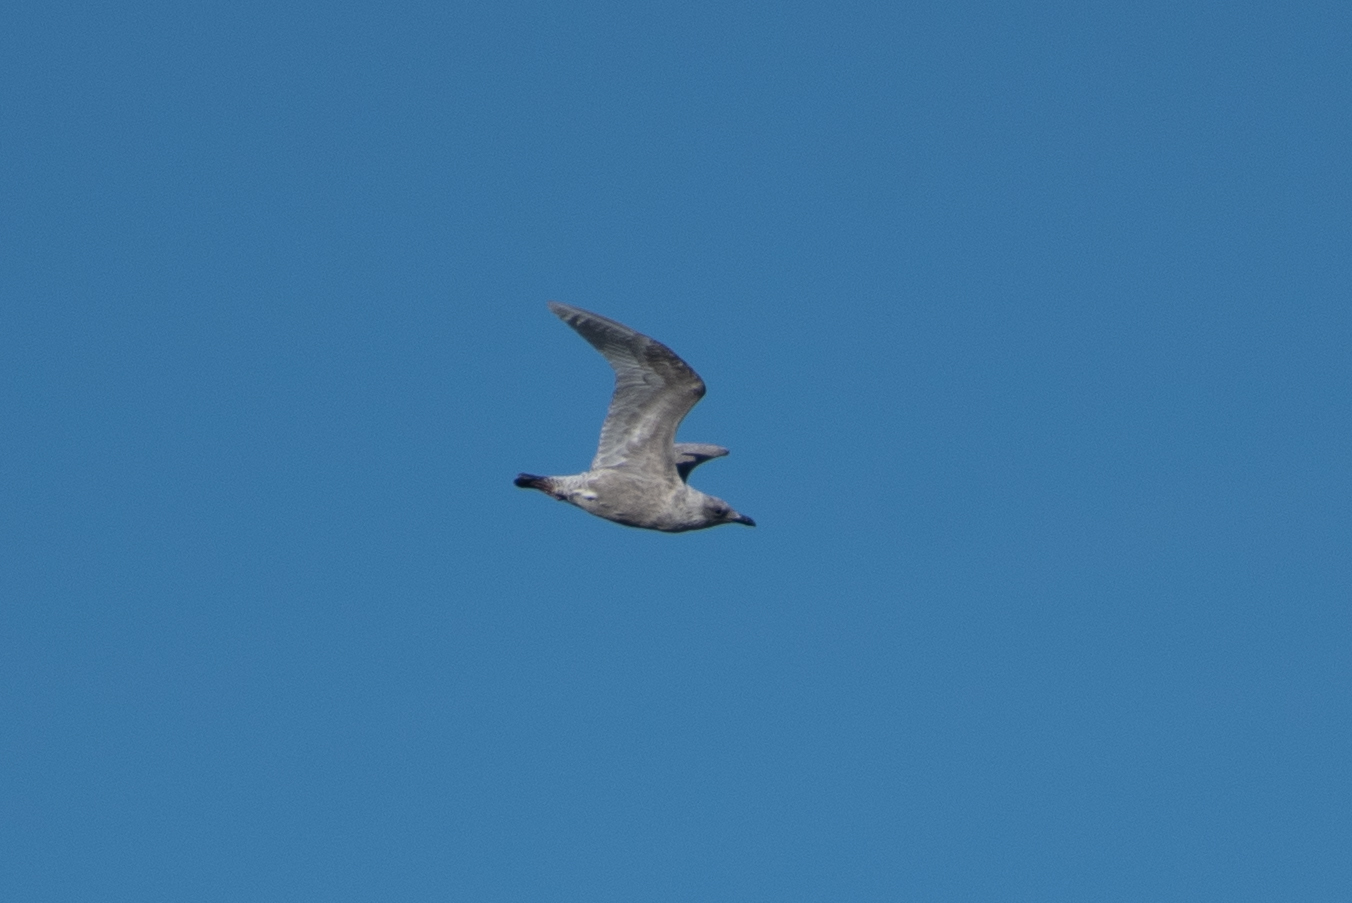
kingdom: Animalia
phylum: Chordata
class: Aves
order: Charadriiformes
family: Laridae
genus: Larus
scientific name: Larus glaucescens
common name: Glaucous-winged gull
